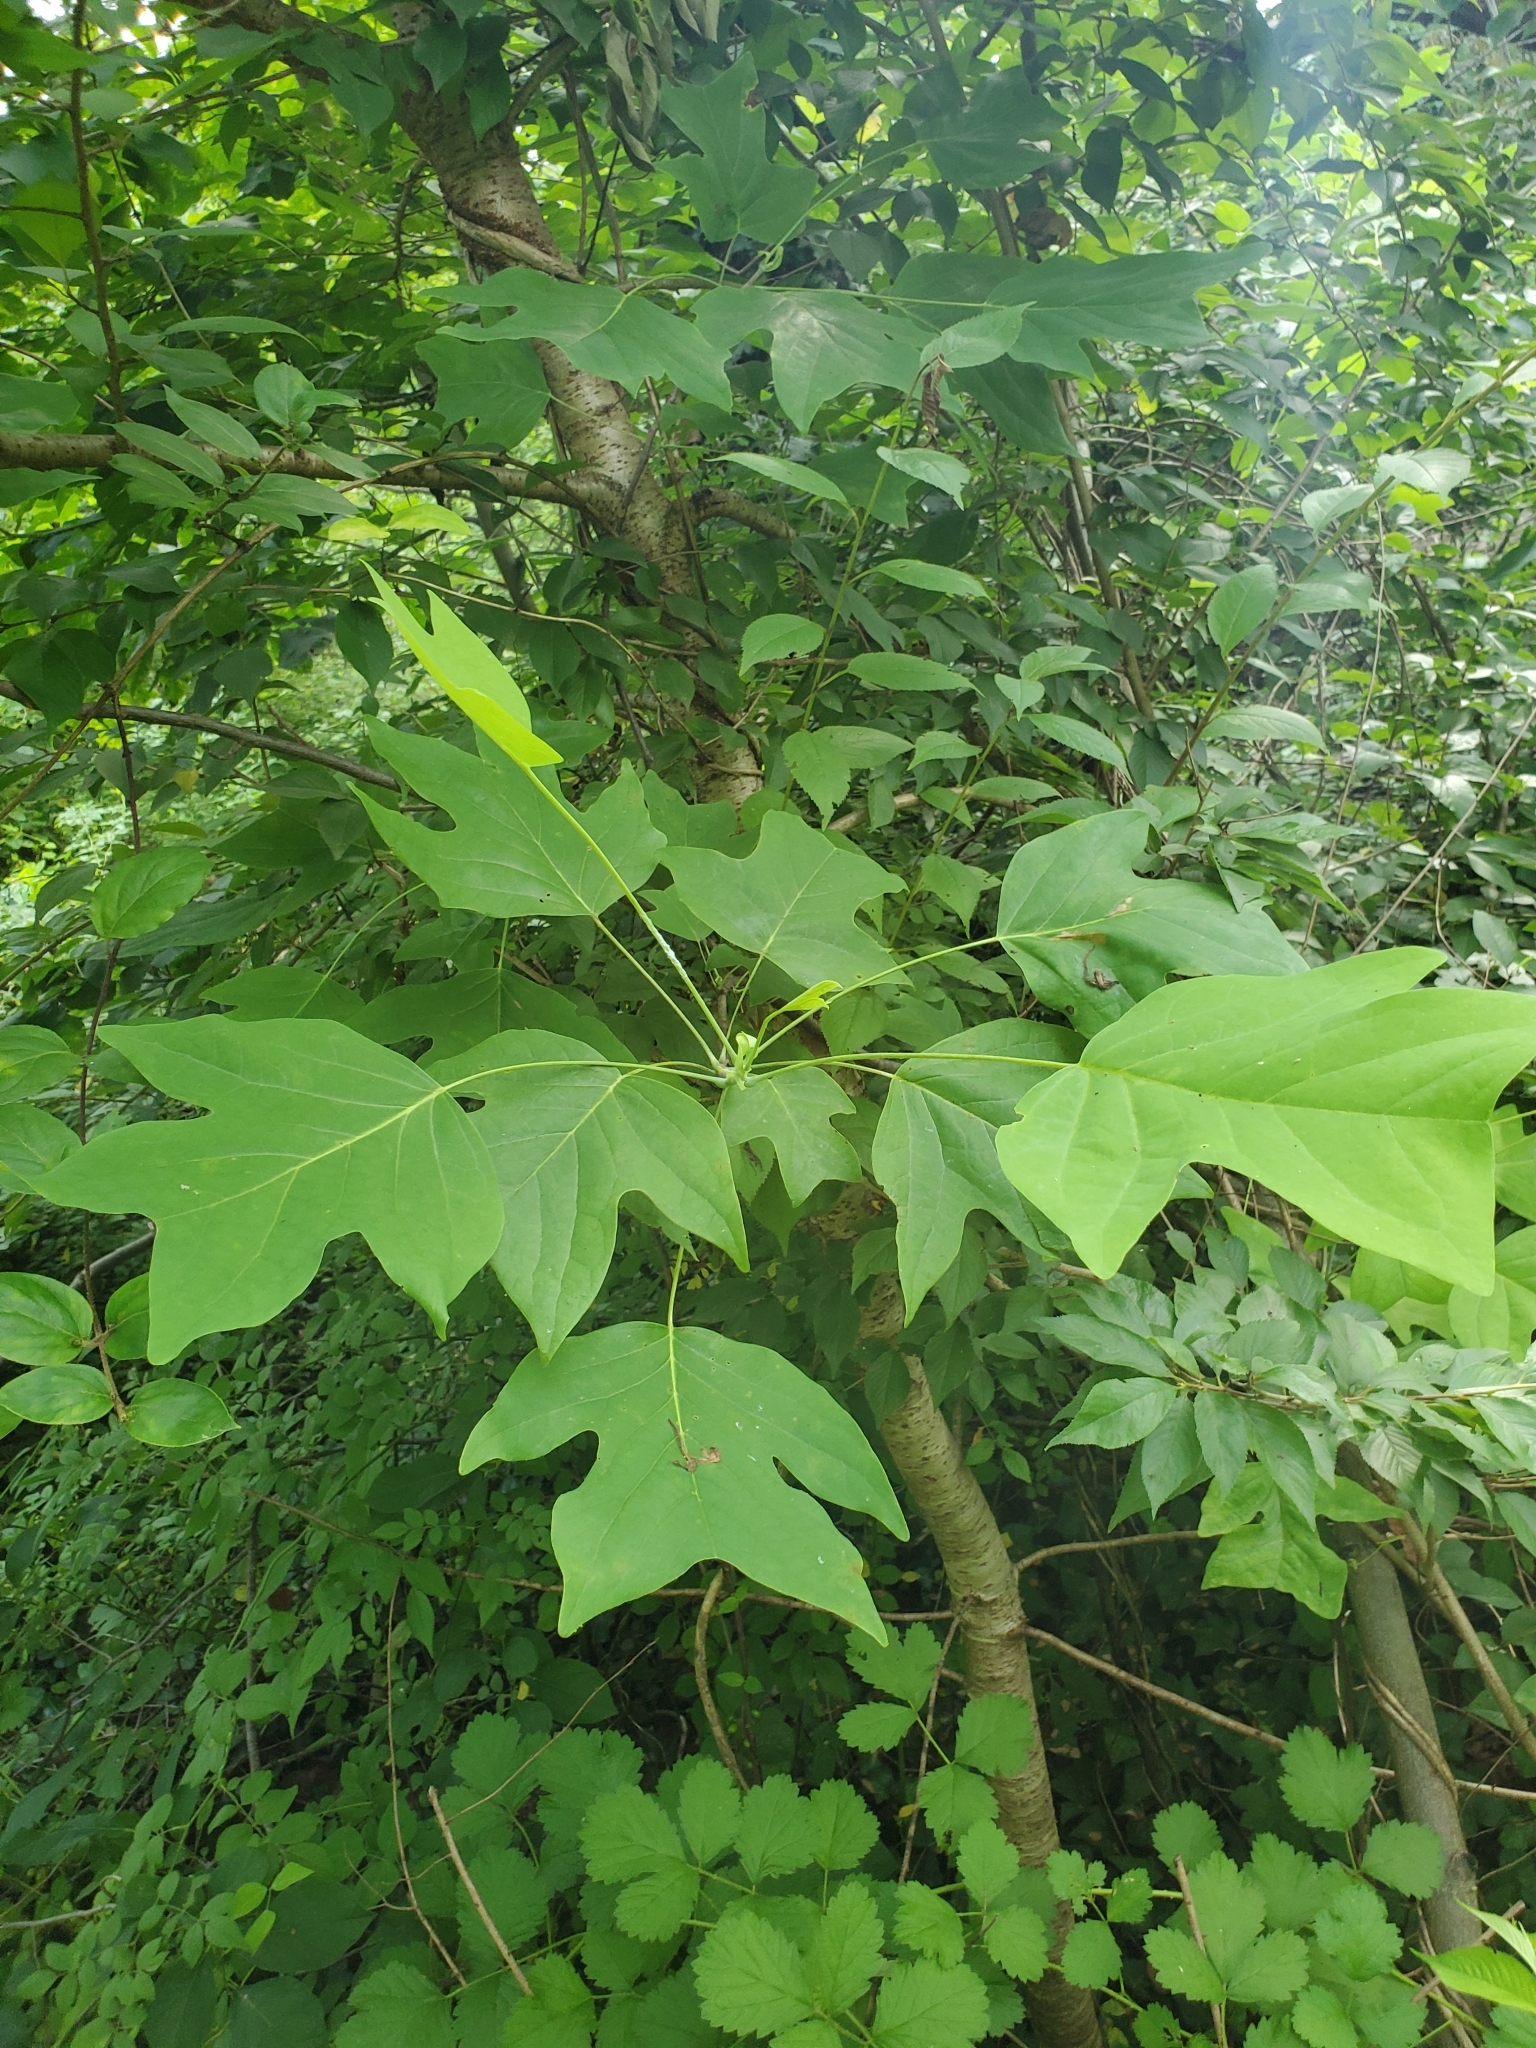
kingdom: Plantae
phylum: Tracheophyta
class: Magnoliopsida
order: Magnoliales
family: Magnoliaceae
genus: Liriodendron
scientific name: Liriodendron tulipifera
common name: Tulip tree
